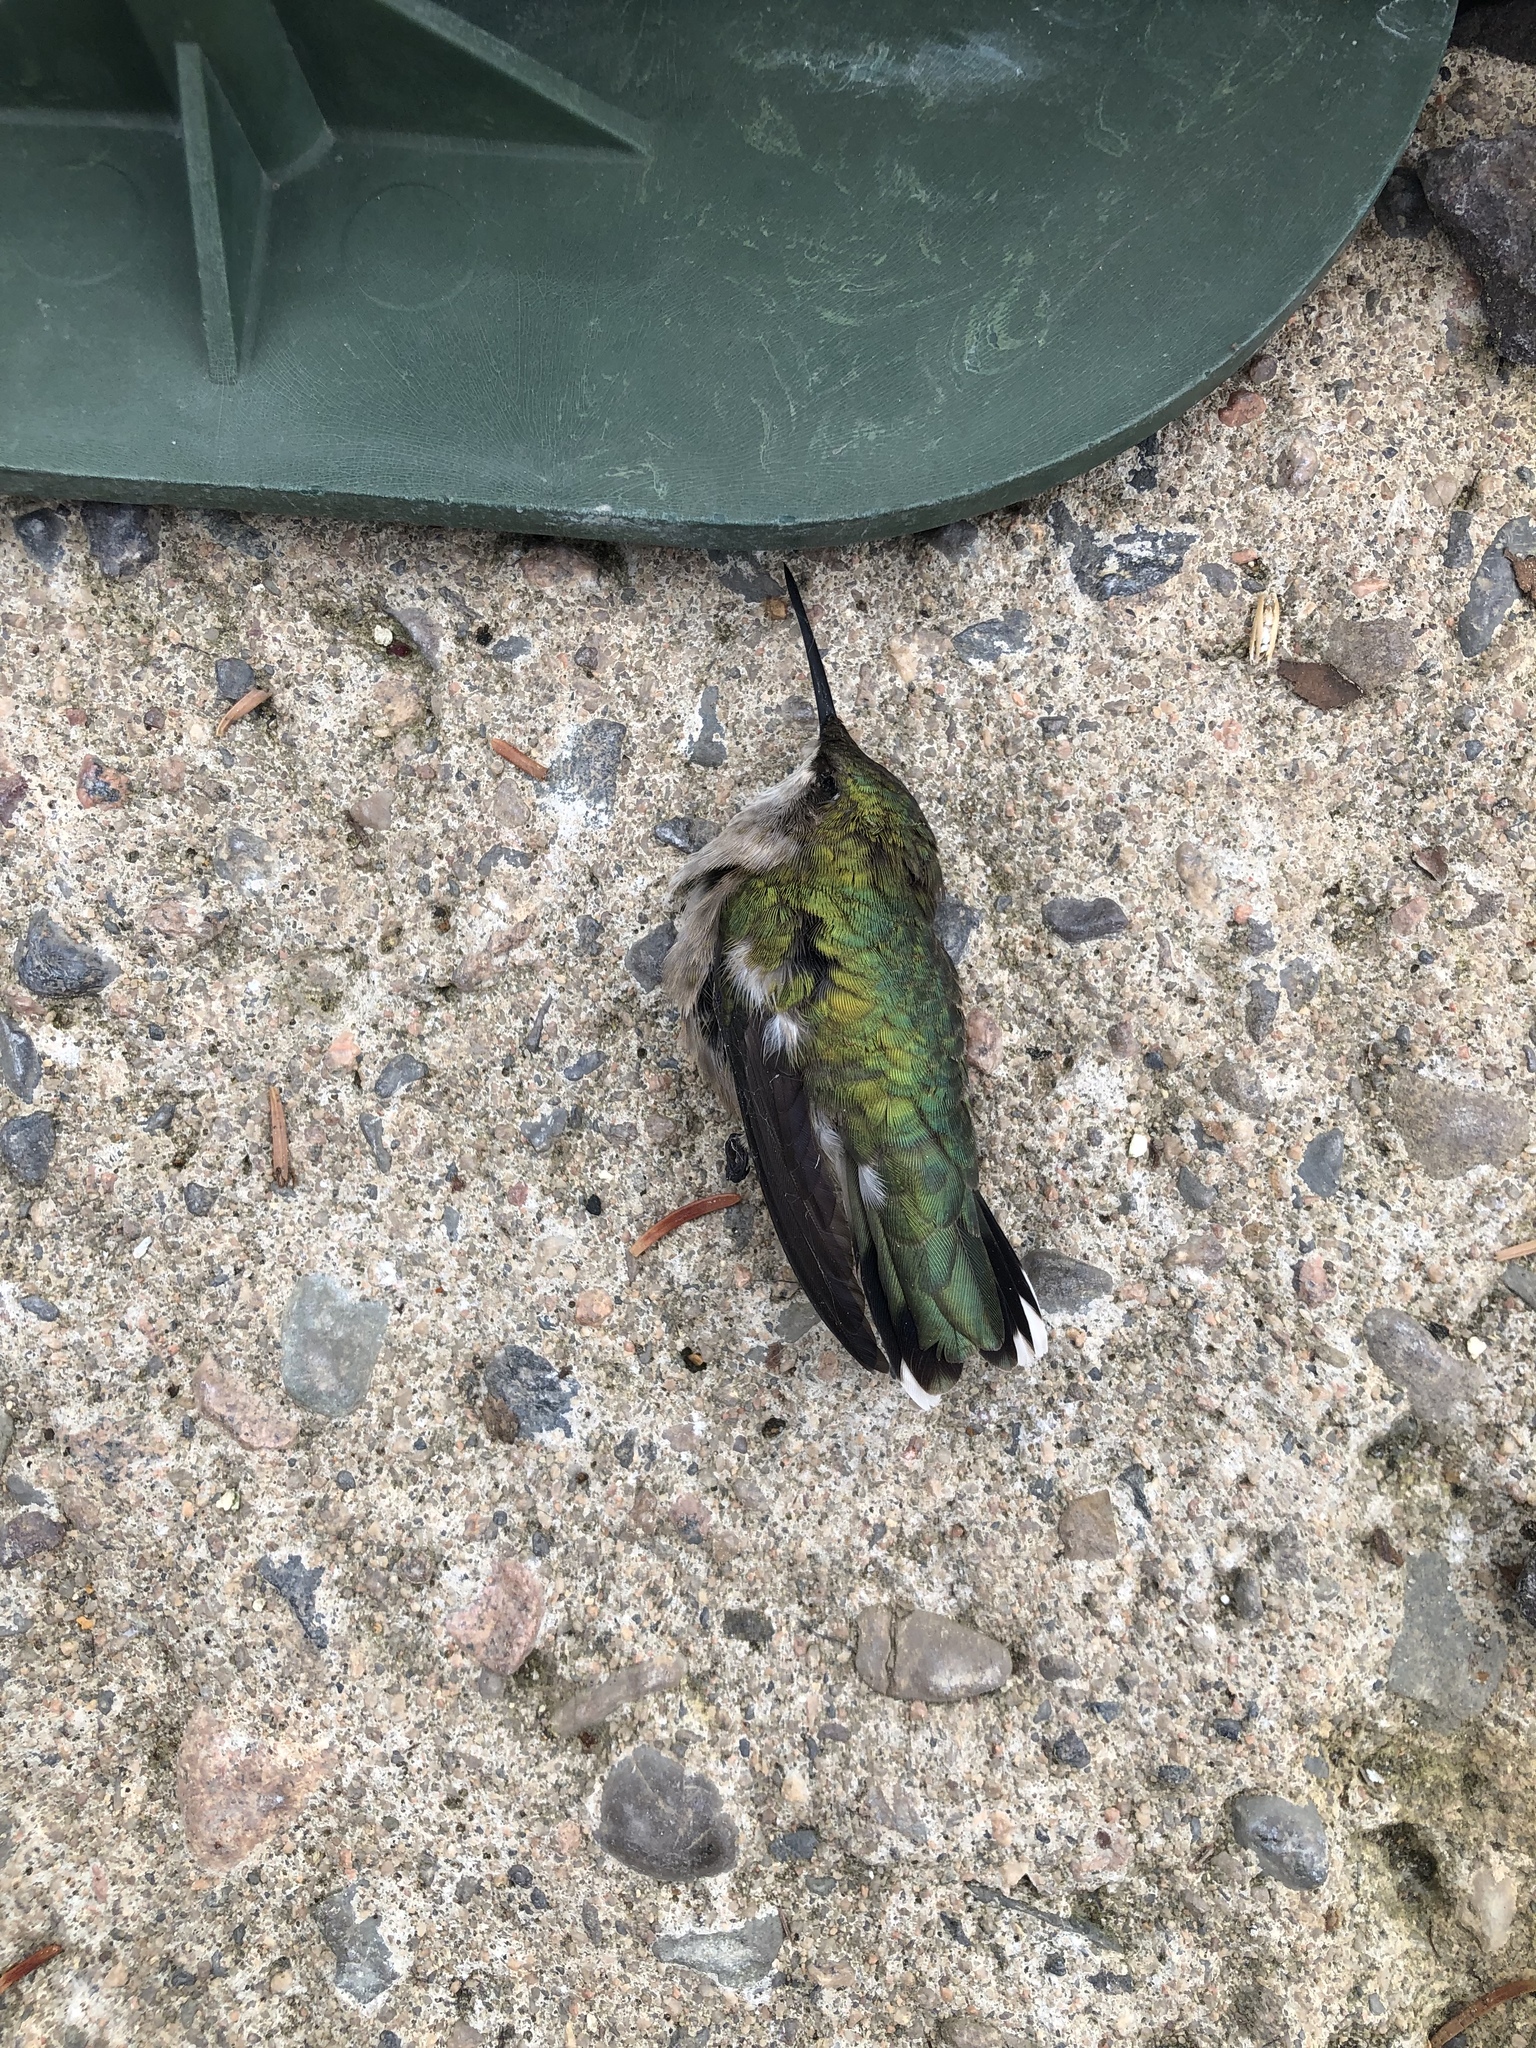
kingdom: Animalia
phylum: Chordata
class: Aves
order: Apodiformes
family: Trochilidae
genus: Archilochus
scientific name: Archilochus colubris
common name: Ruby-throated hummingbird
